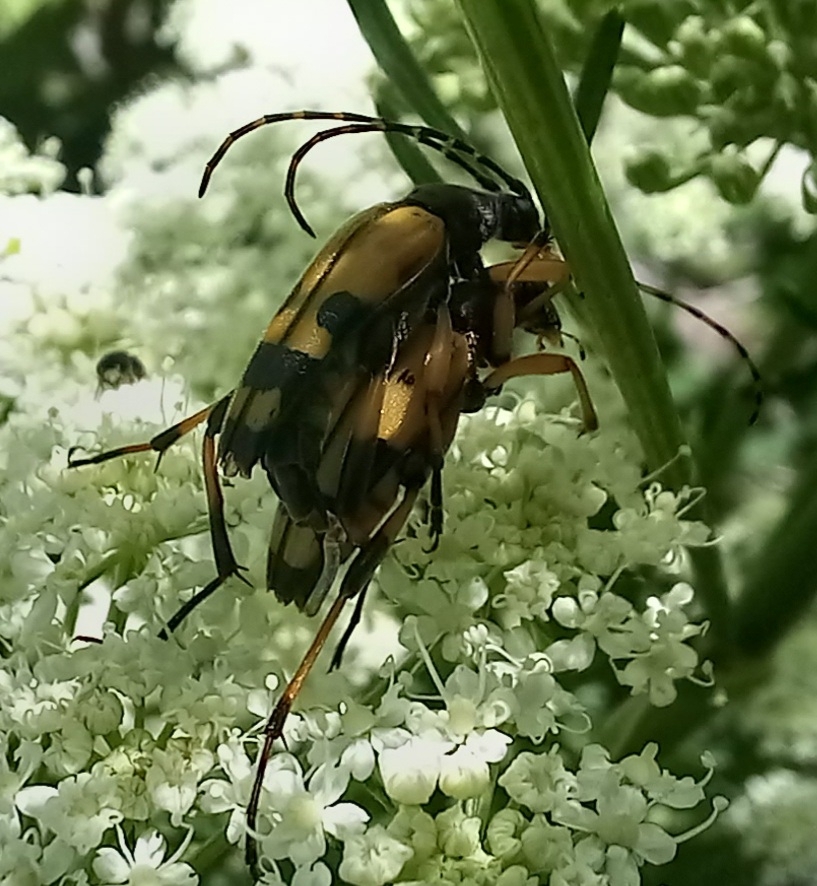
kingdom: Animalia
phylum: Arthropoda
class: Insecta
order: Coleoptera
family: Cerambycidae
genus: Rutpela
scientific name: Rutpela maculata
